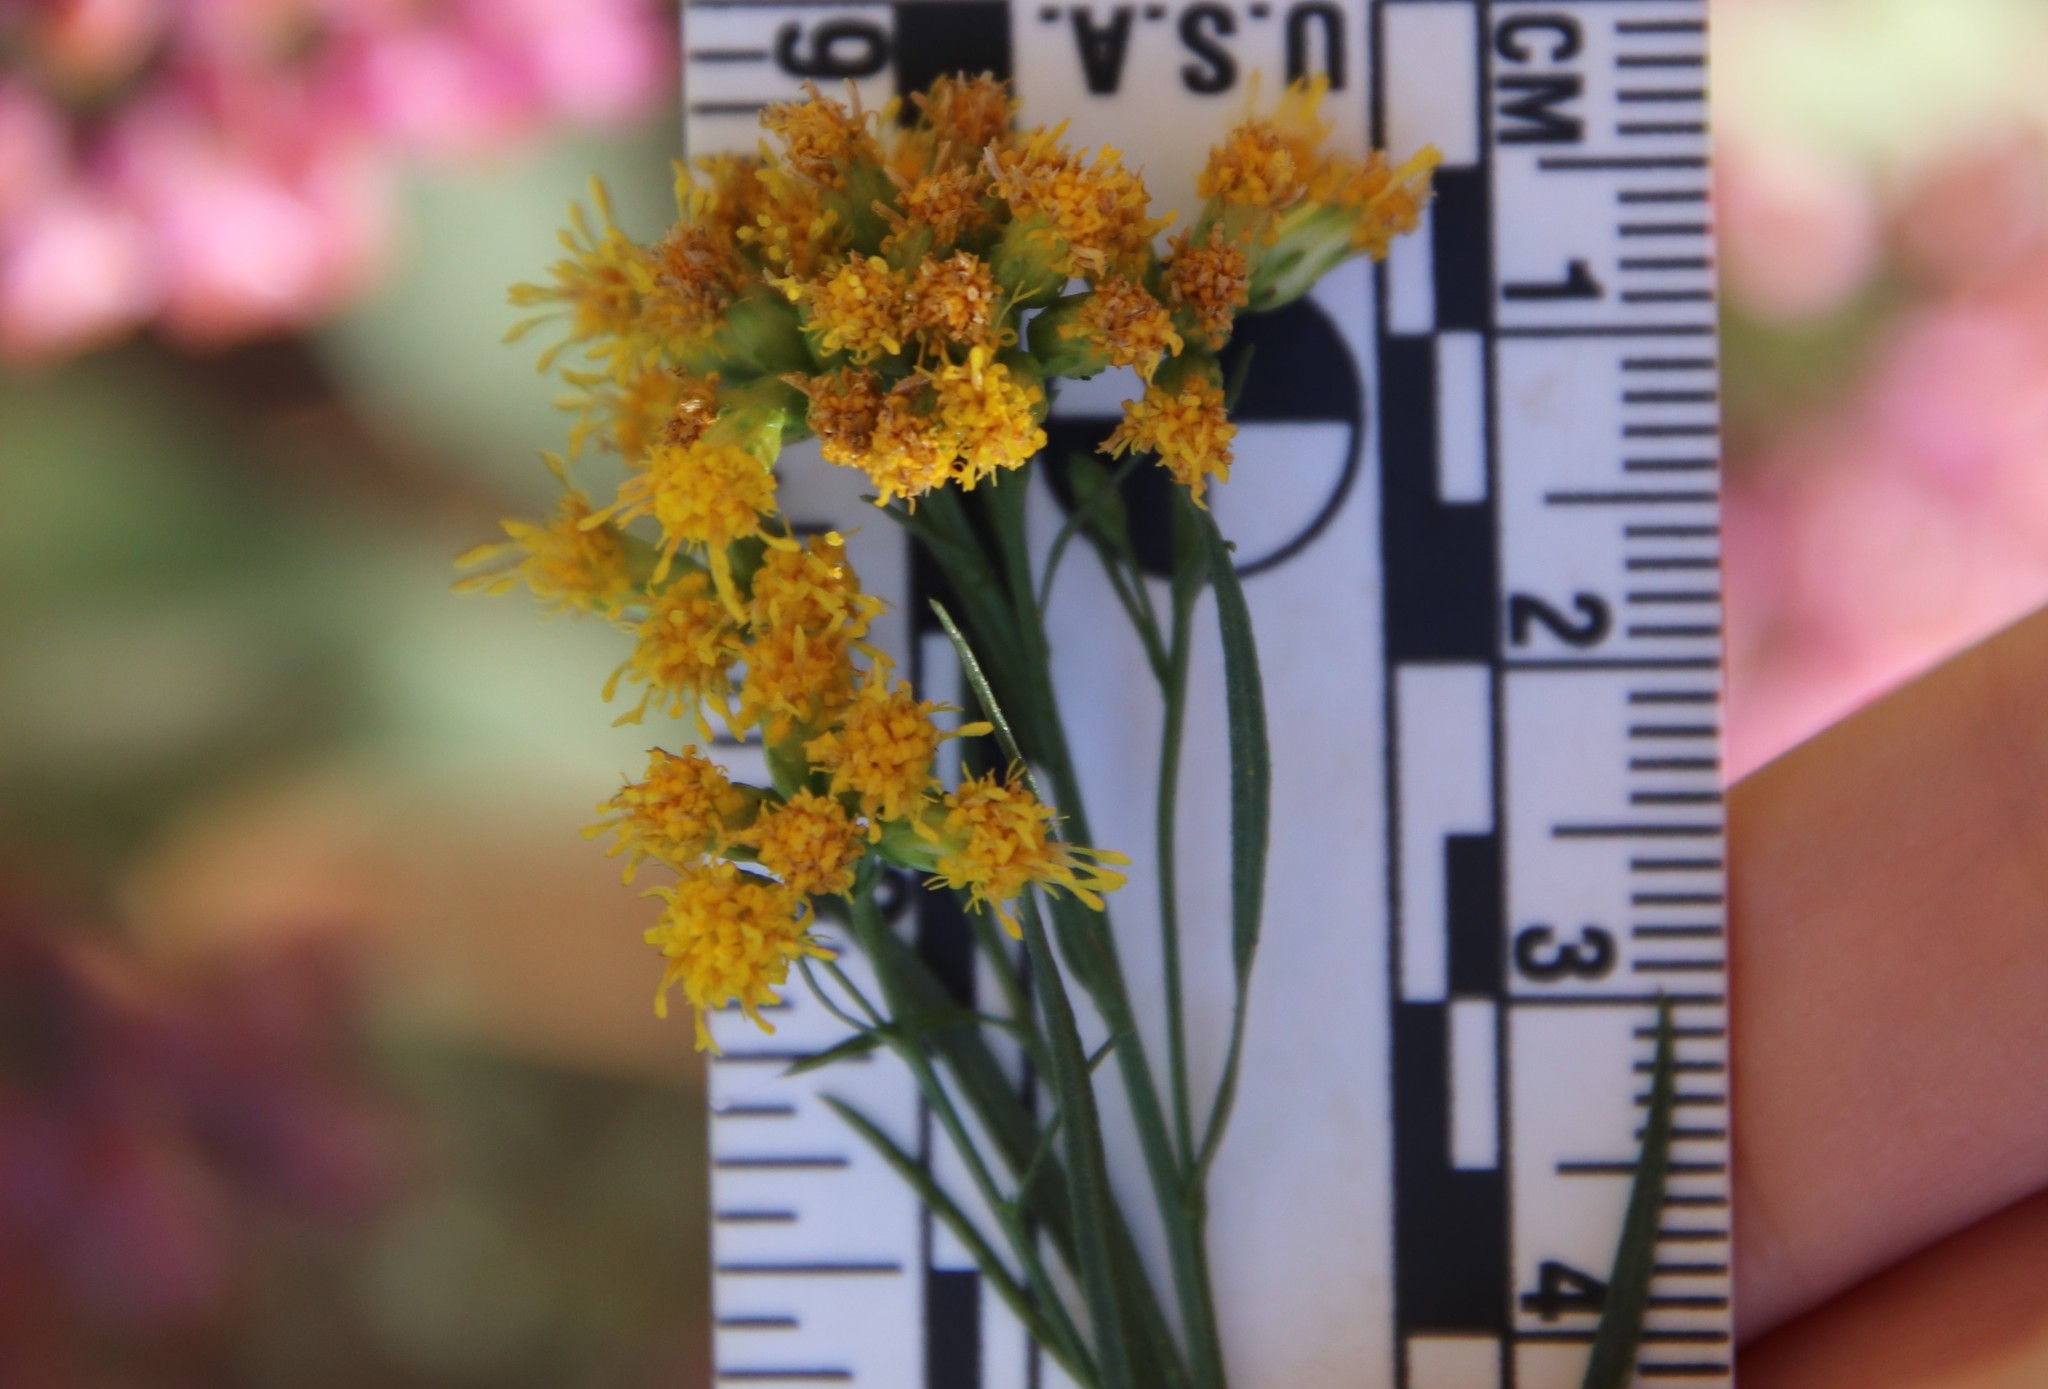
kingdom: Plantae
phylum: Tracheophyta
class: Magnoliopsida
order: Asterales
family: Asteraceae
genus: Euthamia
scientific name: Euthamia occidentalis
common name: Western goldentop
